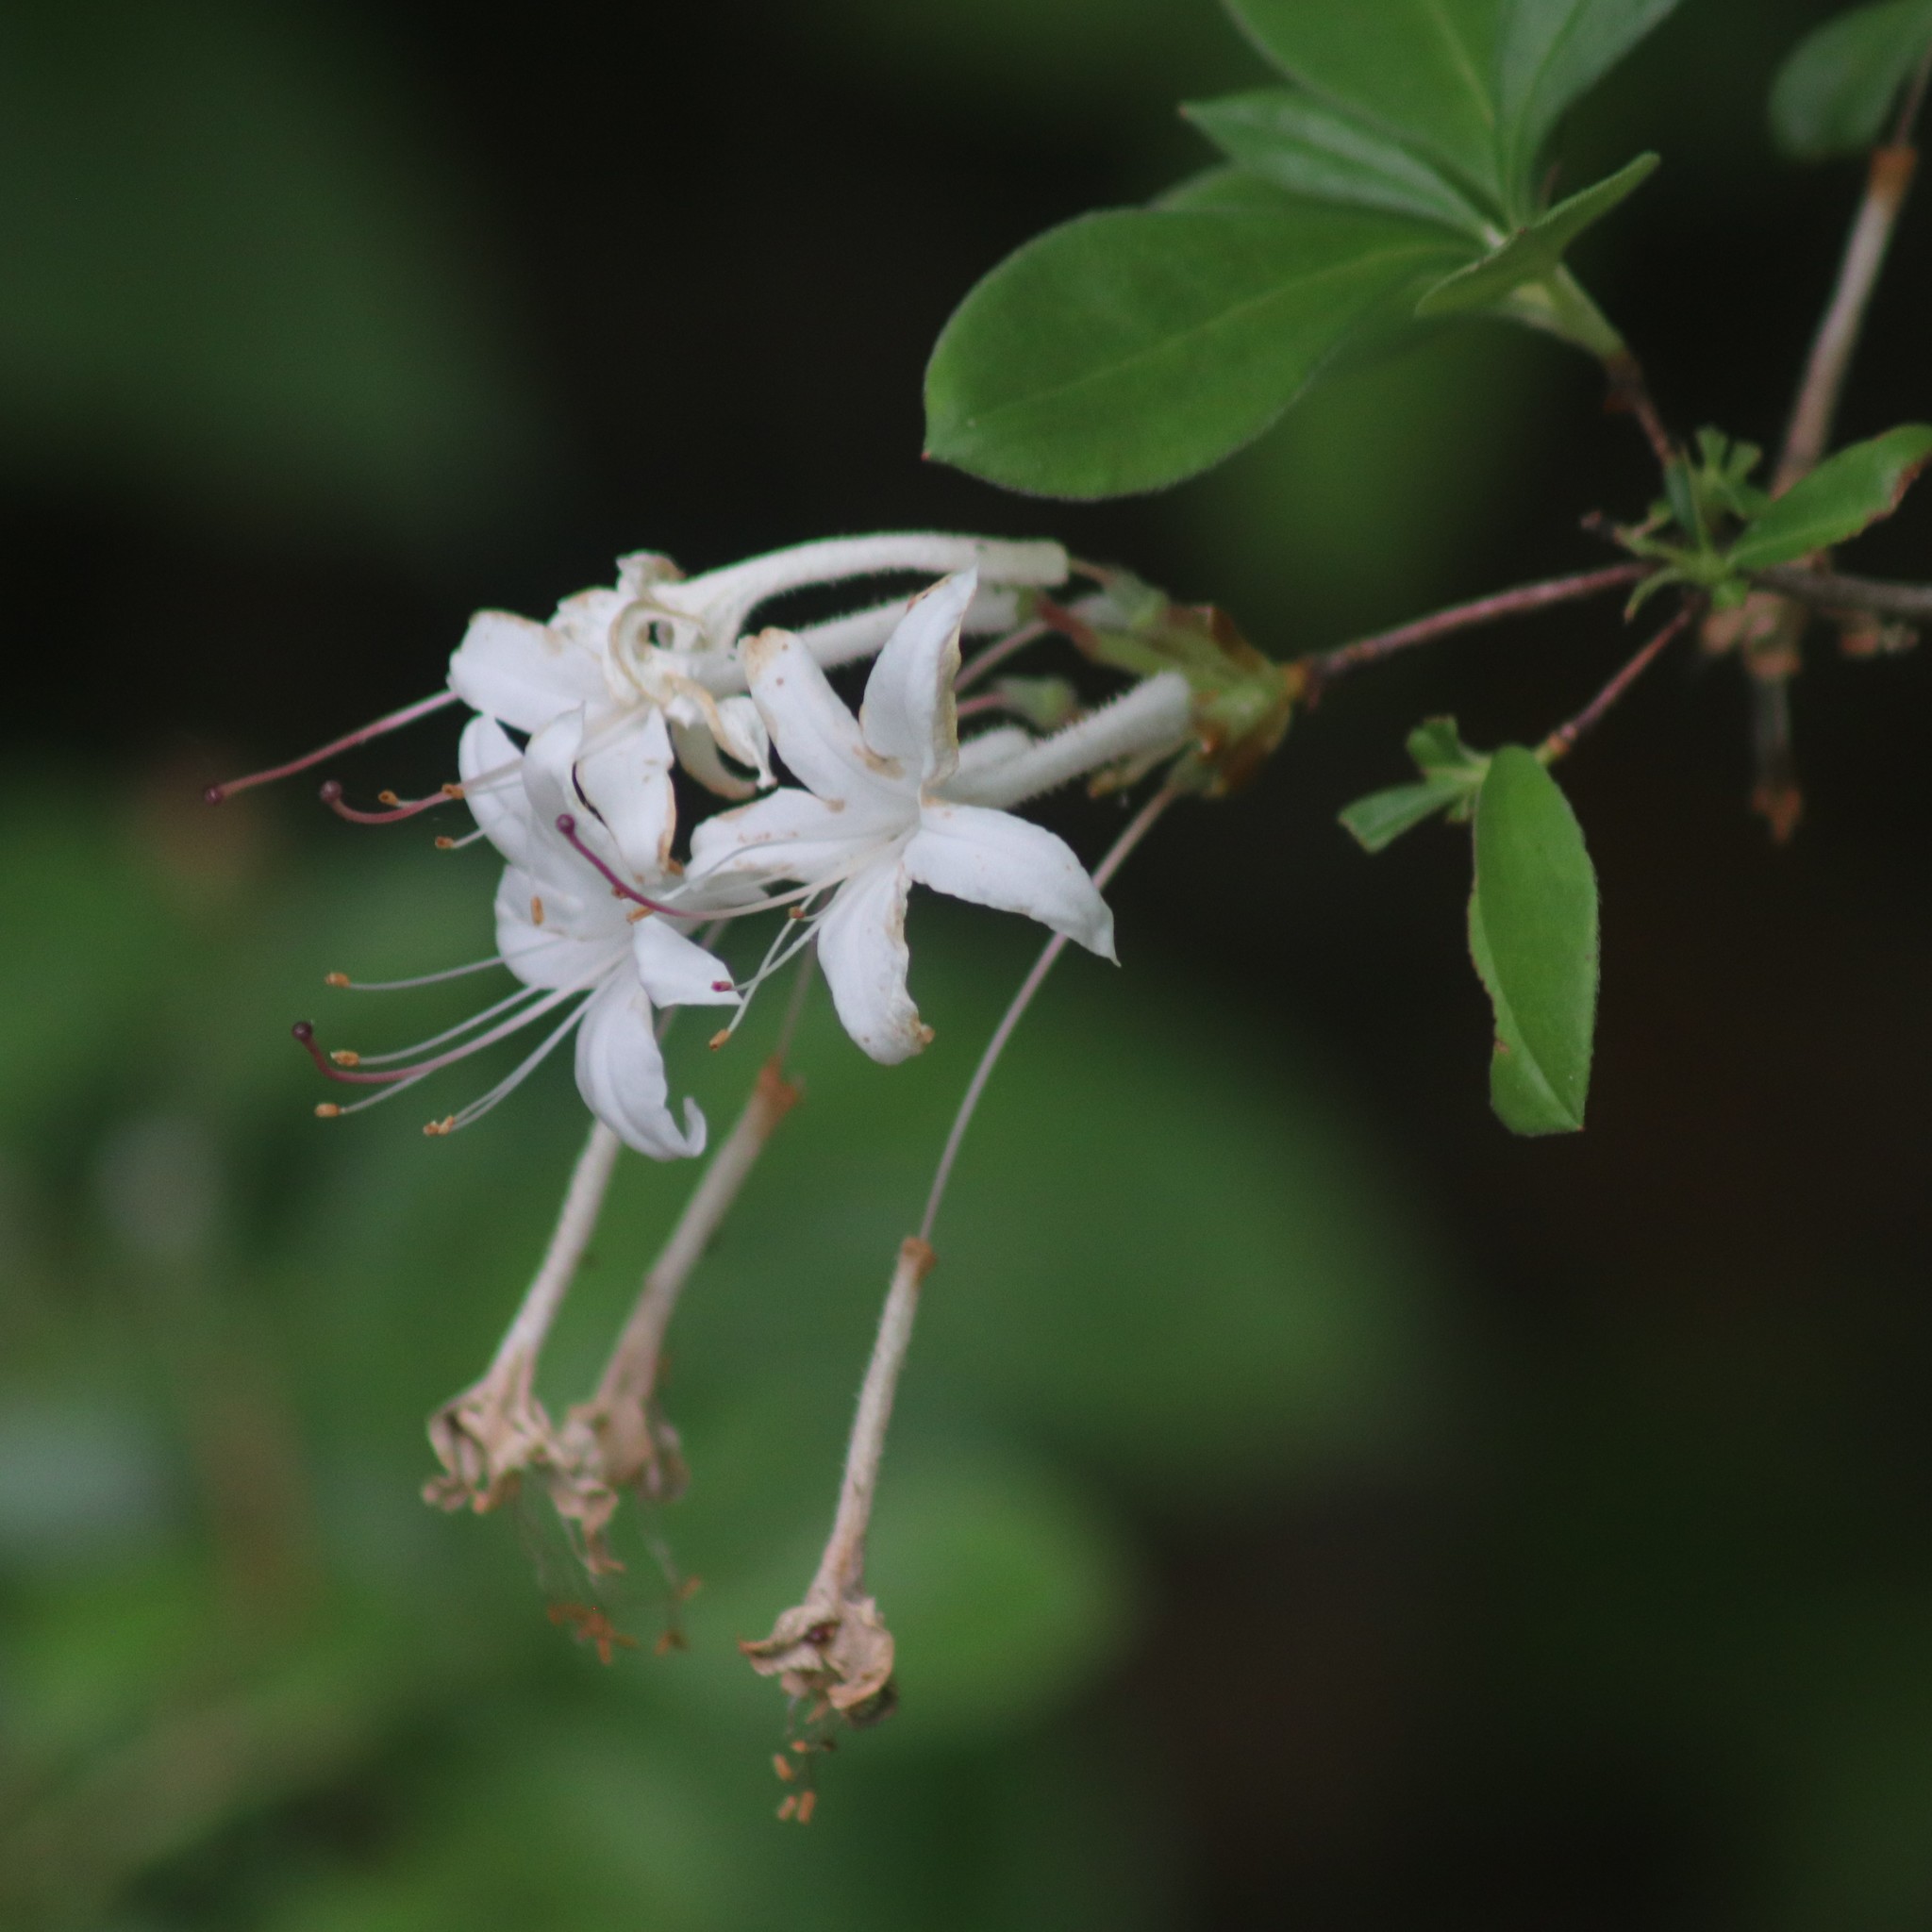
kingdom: Plantae
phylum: Tracheophyta
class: Magnoliopsida
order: Ericales
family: Ericaceae
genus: Rhododendron
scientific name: Rhododendron viscosum
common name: Clammy azalea
